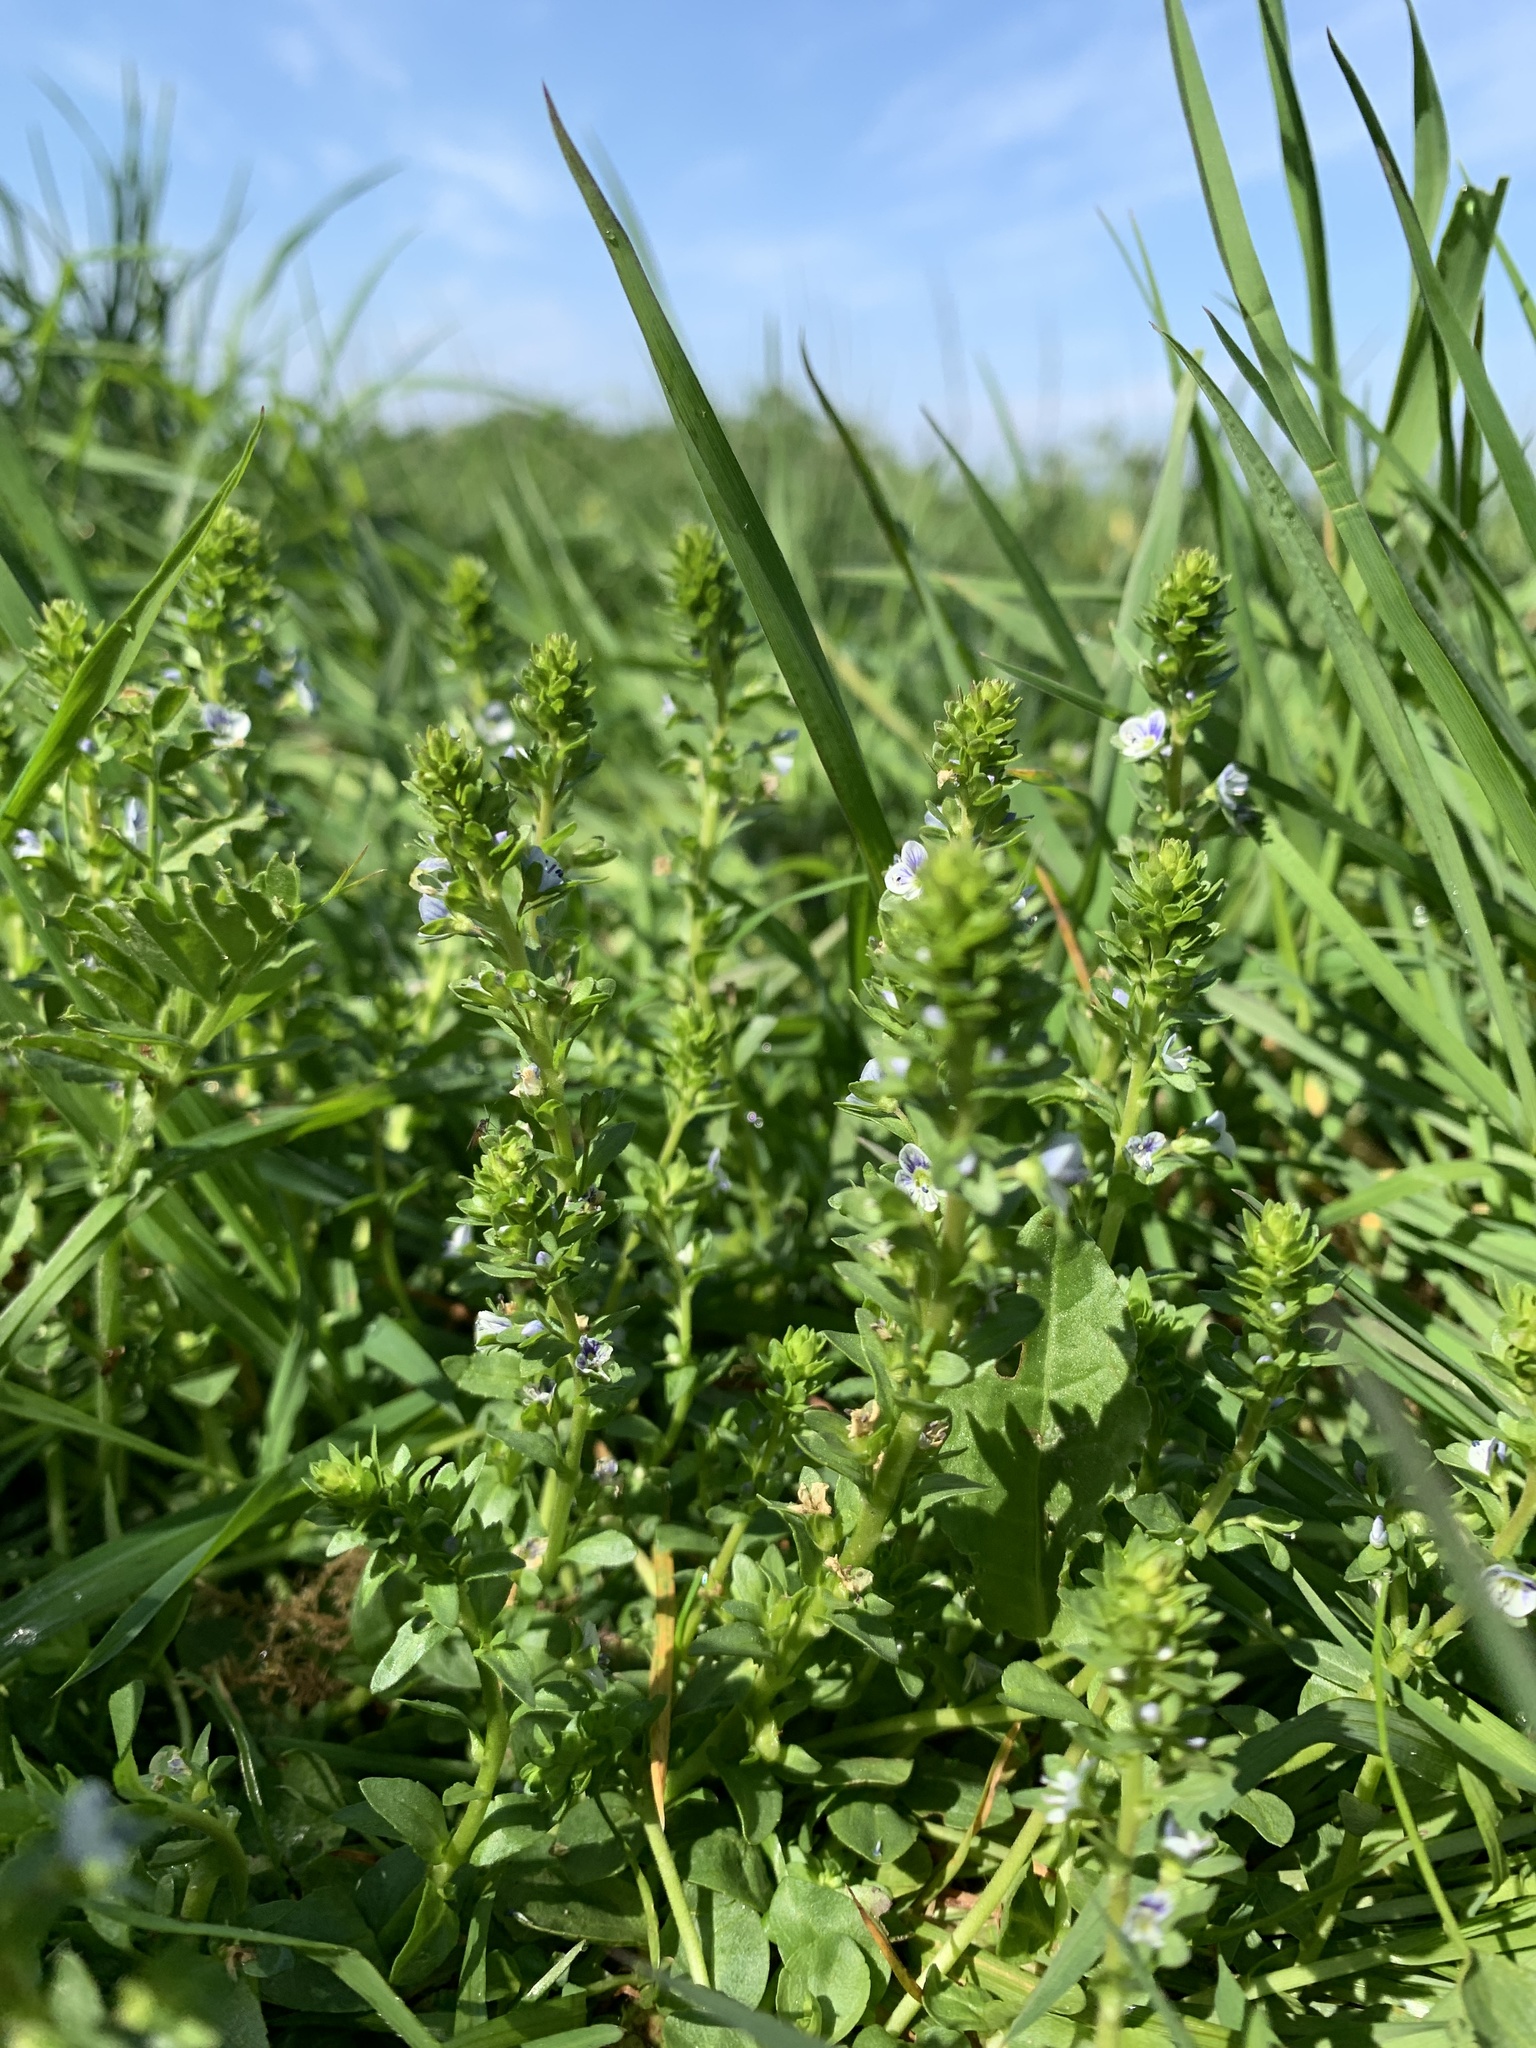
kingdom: Plantae
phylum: Tracheophyta
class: Magnoliopsida
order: Lamiales
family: Plantaginaceae
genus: Veronica
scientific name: Veronica serpyllifolia
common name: Thyme-leaved speedwell
